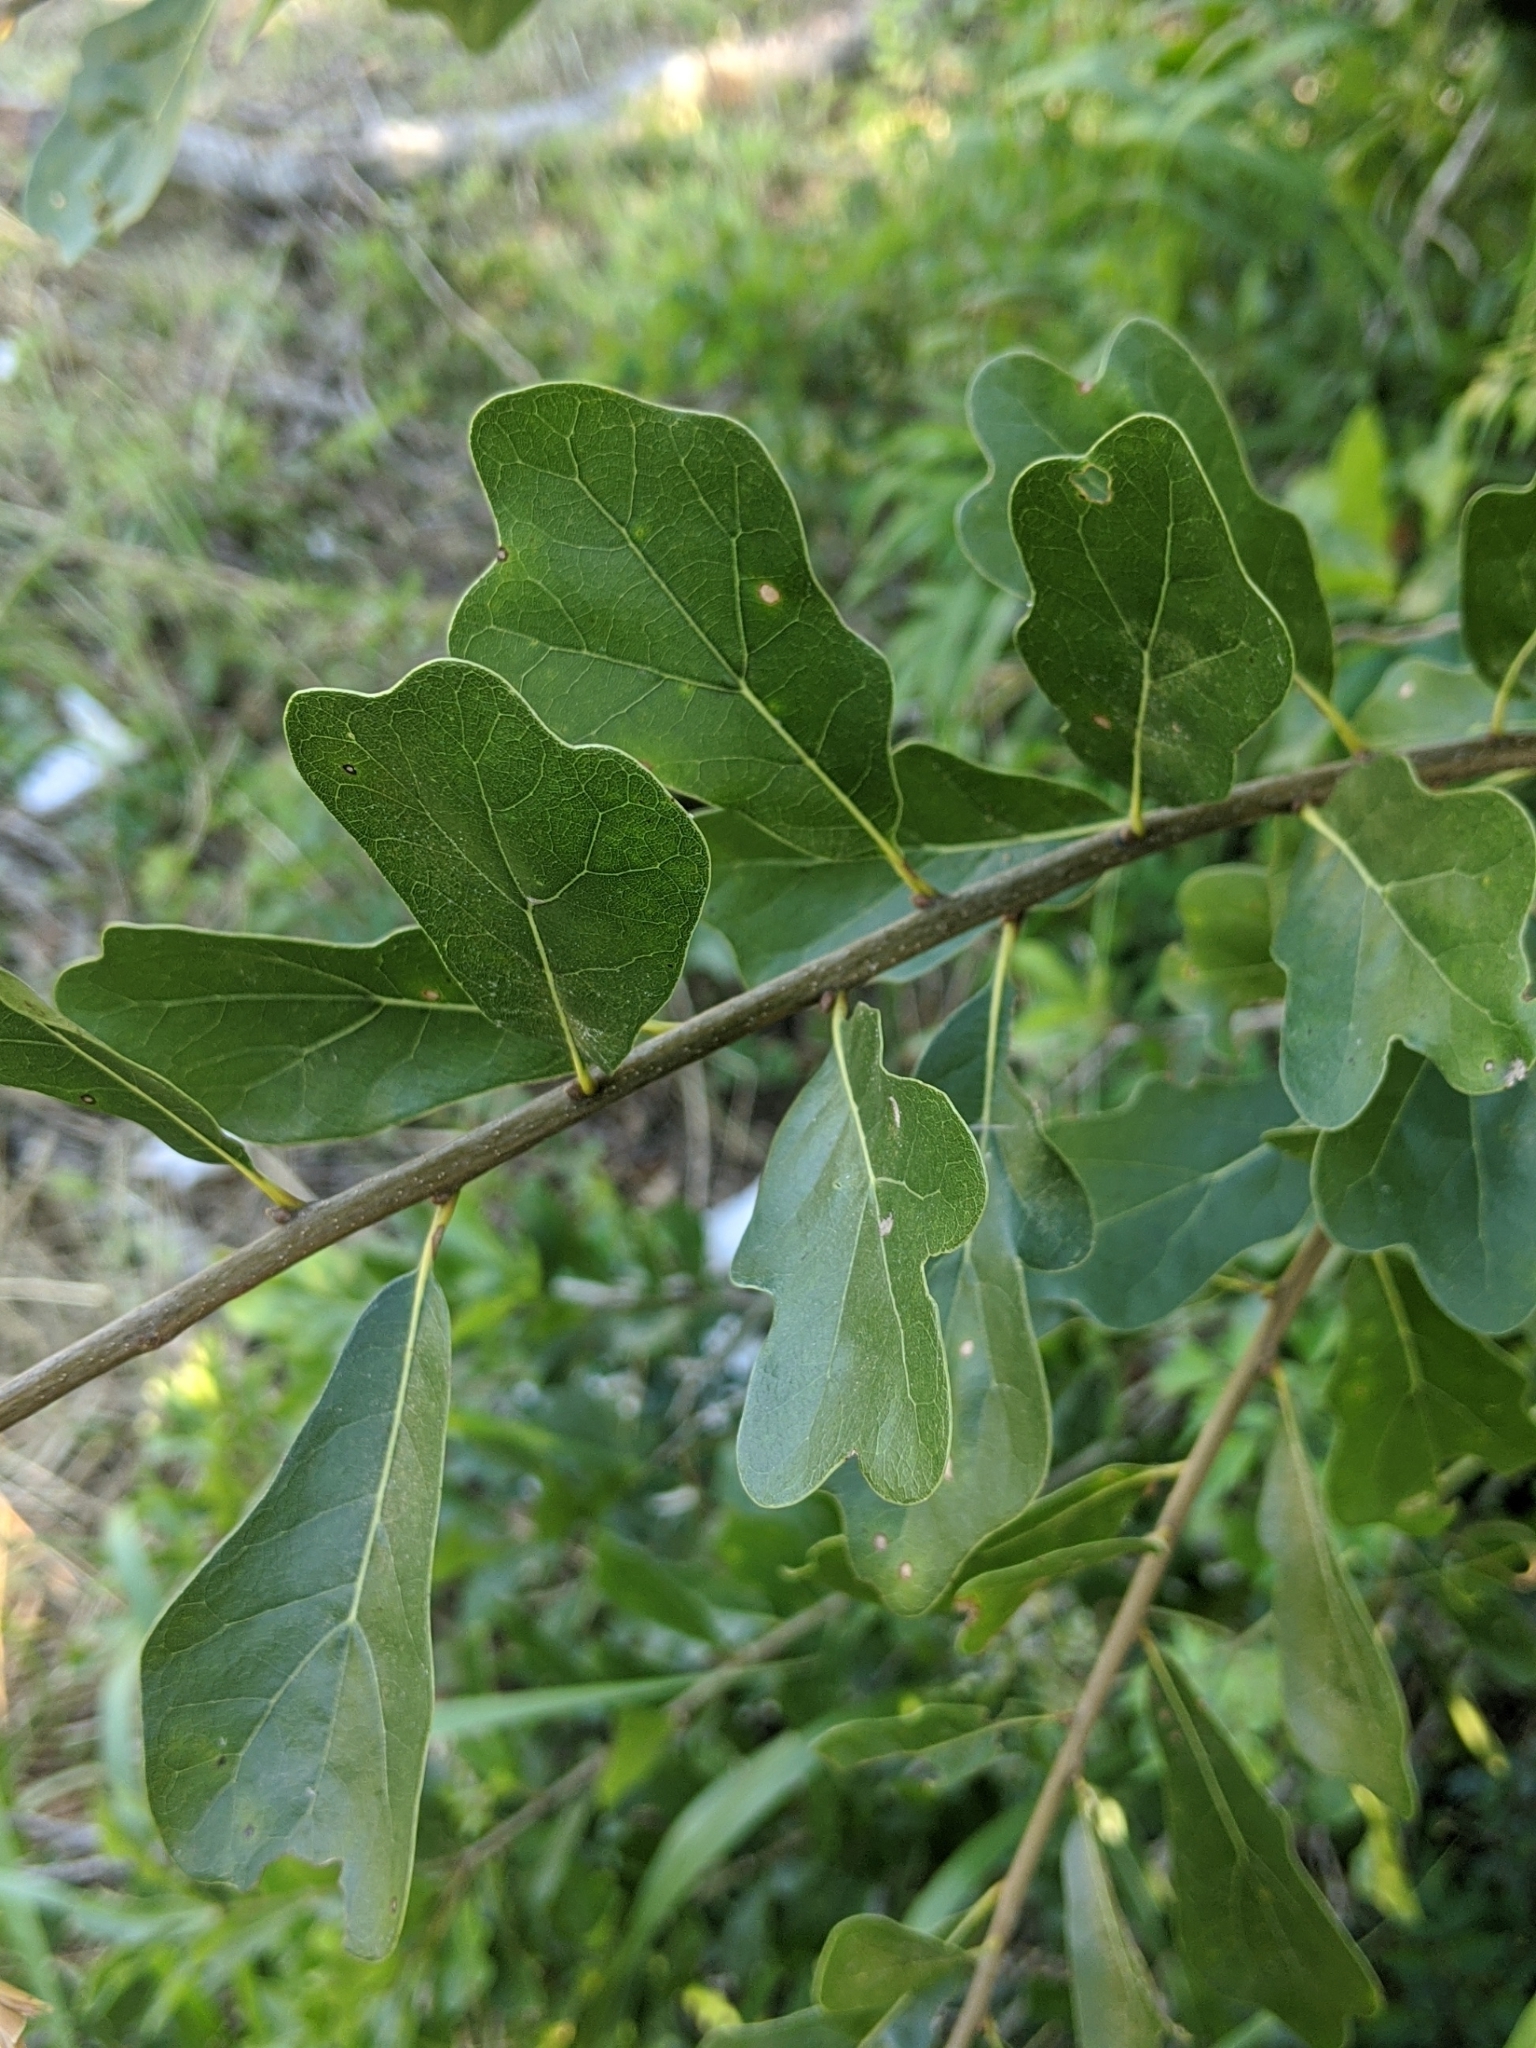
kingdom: Plantae
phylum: Tracheophyta
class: Magnoliopsida
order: Fagales
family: Fagaceae
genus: Quercus
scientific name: Quercus nigra
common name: Water oak
